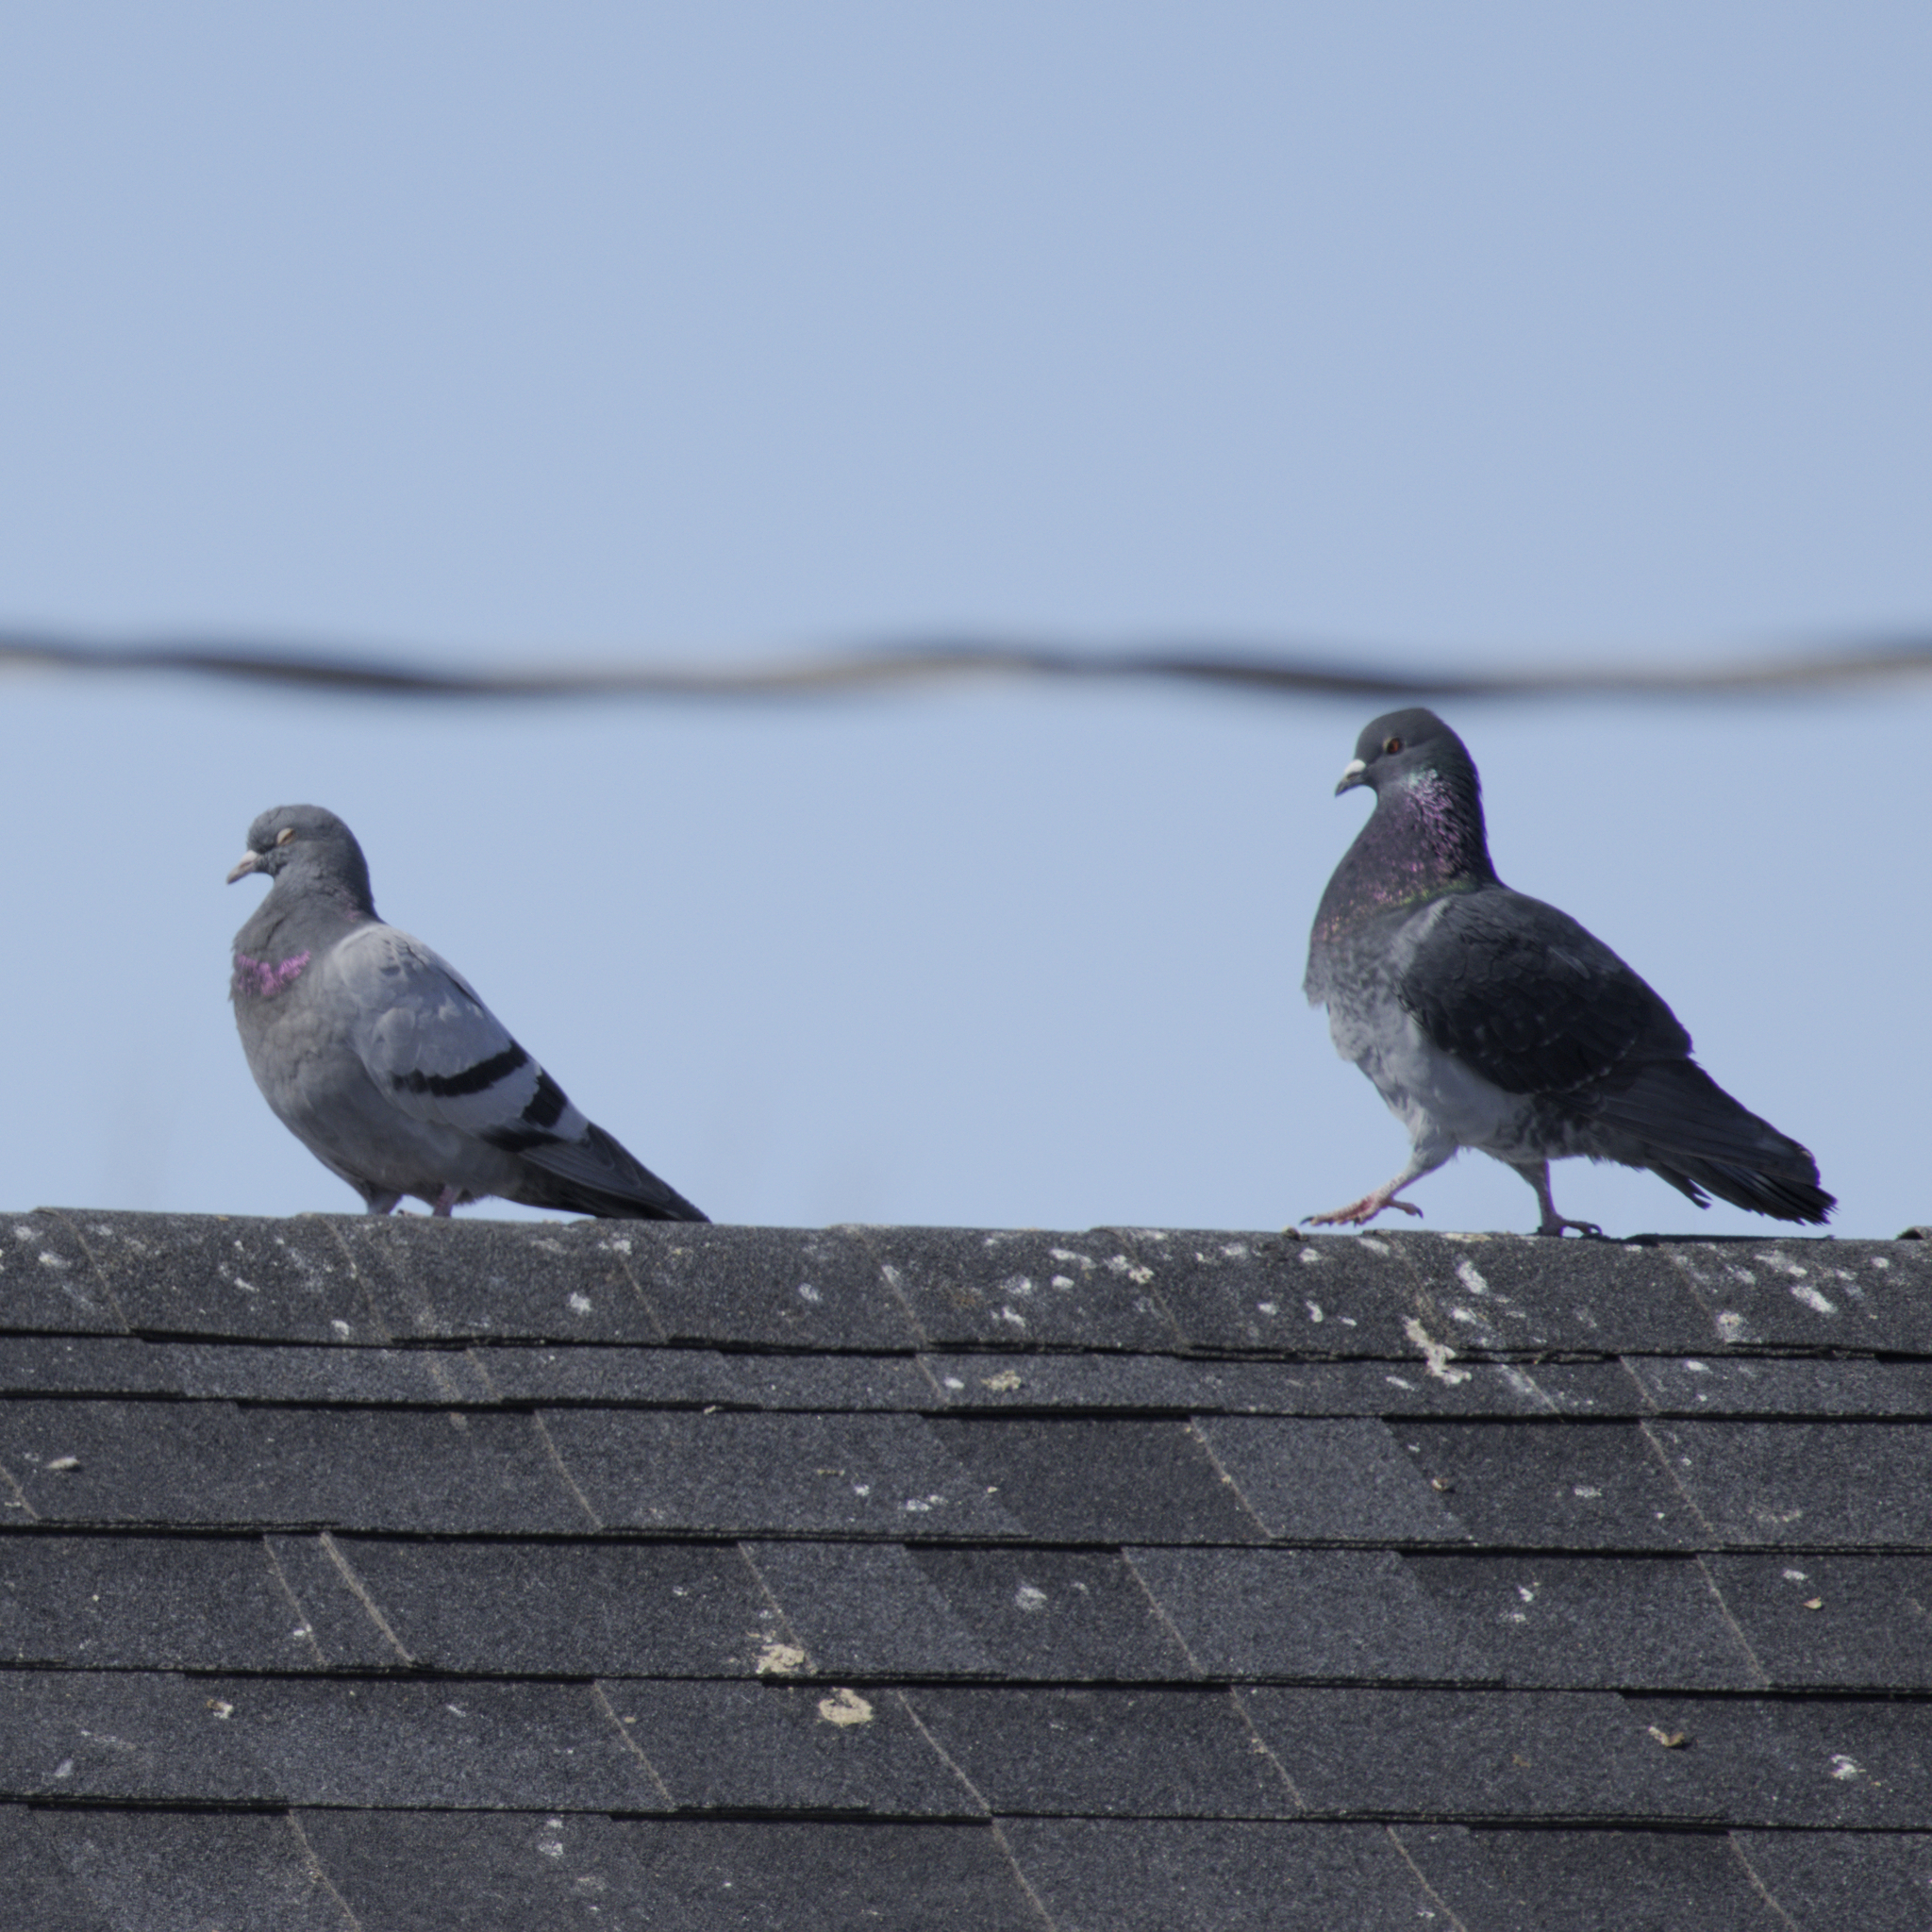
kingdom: Animalia
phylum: Chordata
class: Aves
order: Columbiformes
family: Columbidae
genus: Columba
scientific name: Columba livia
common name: Rock pigeon
